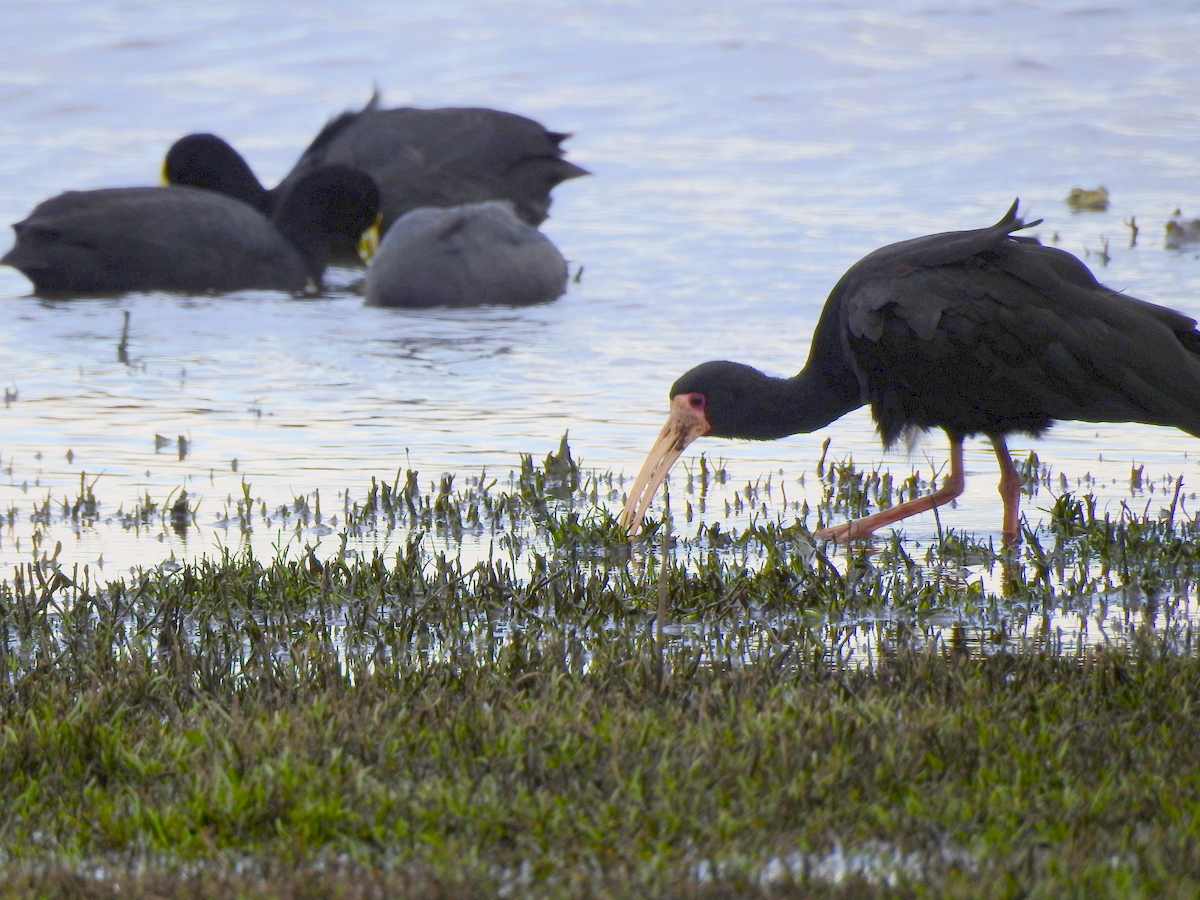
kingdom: Animalia
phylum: Chordata
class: Aves
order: Pelecaniformes
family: Threskiornithidae
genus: Phimosus
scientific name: Phimosus infuscatus
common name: Bare-faced ibis
